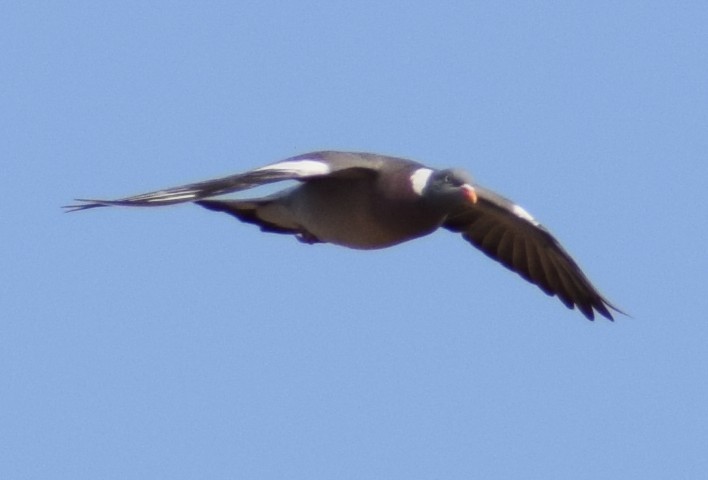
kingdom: Animalia
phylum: Chordata
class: Aves
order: Columbiformes
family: Columbidae
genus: Columba
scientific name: Columba palumbus
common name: Common wood pigeon
